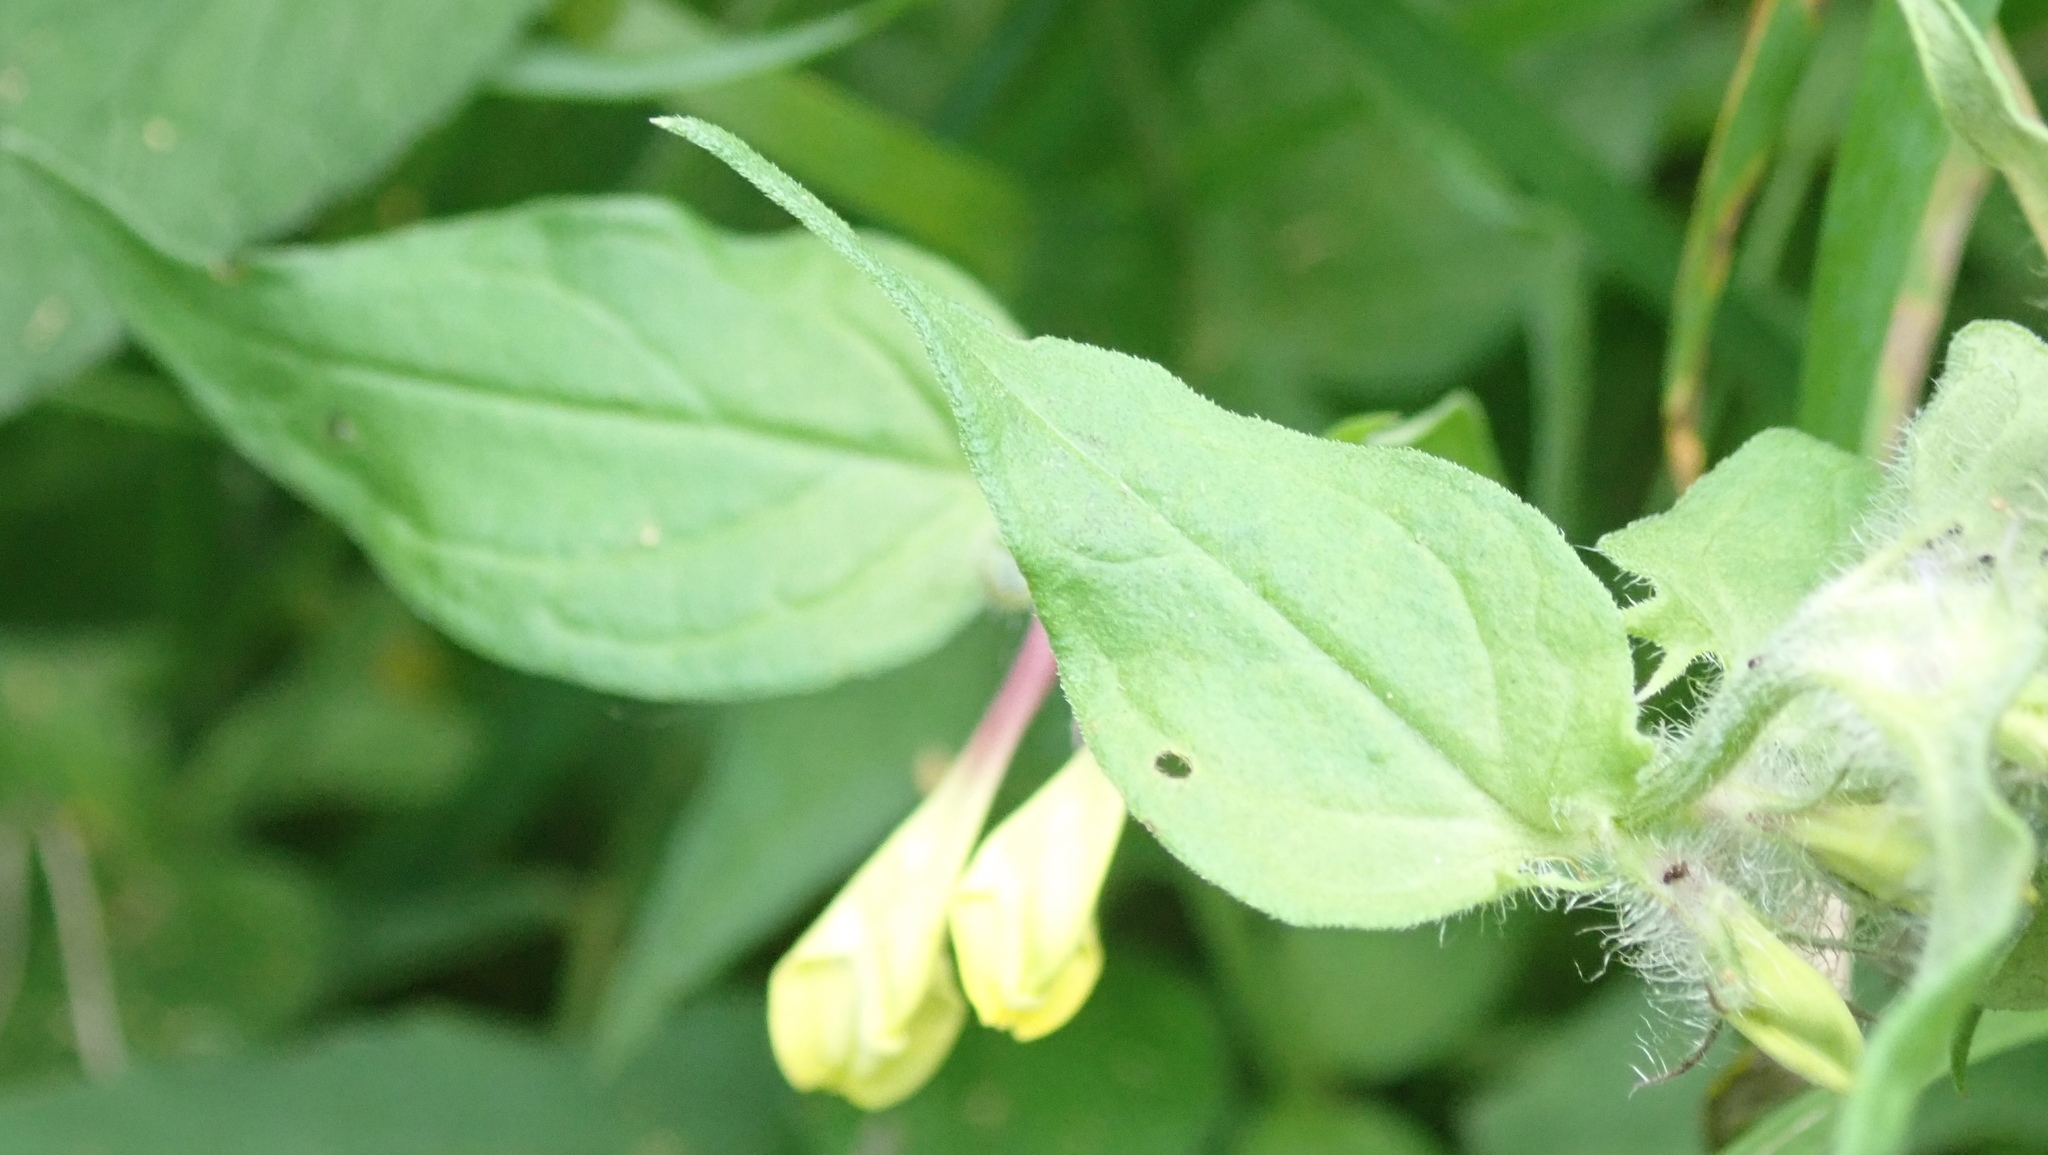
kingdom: Plantae
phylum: Tracheophyta
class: Magnoliopsida
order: Lamiales
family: Orobanchaceae
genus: Melampyrum
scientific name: Melampyrum nemorosum
